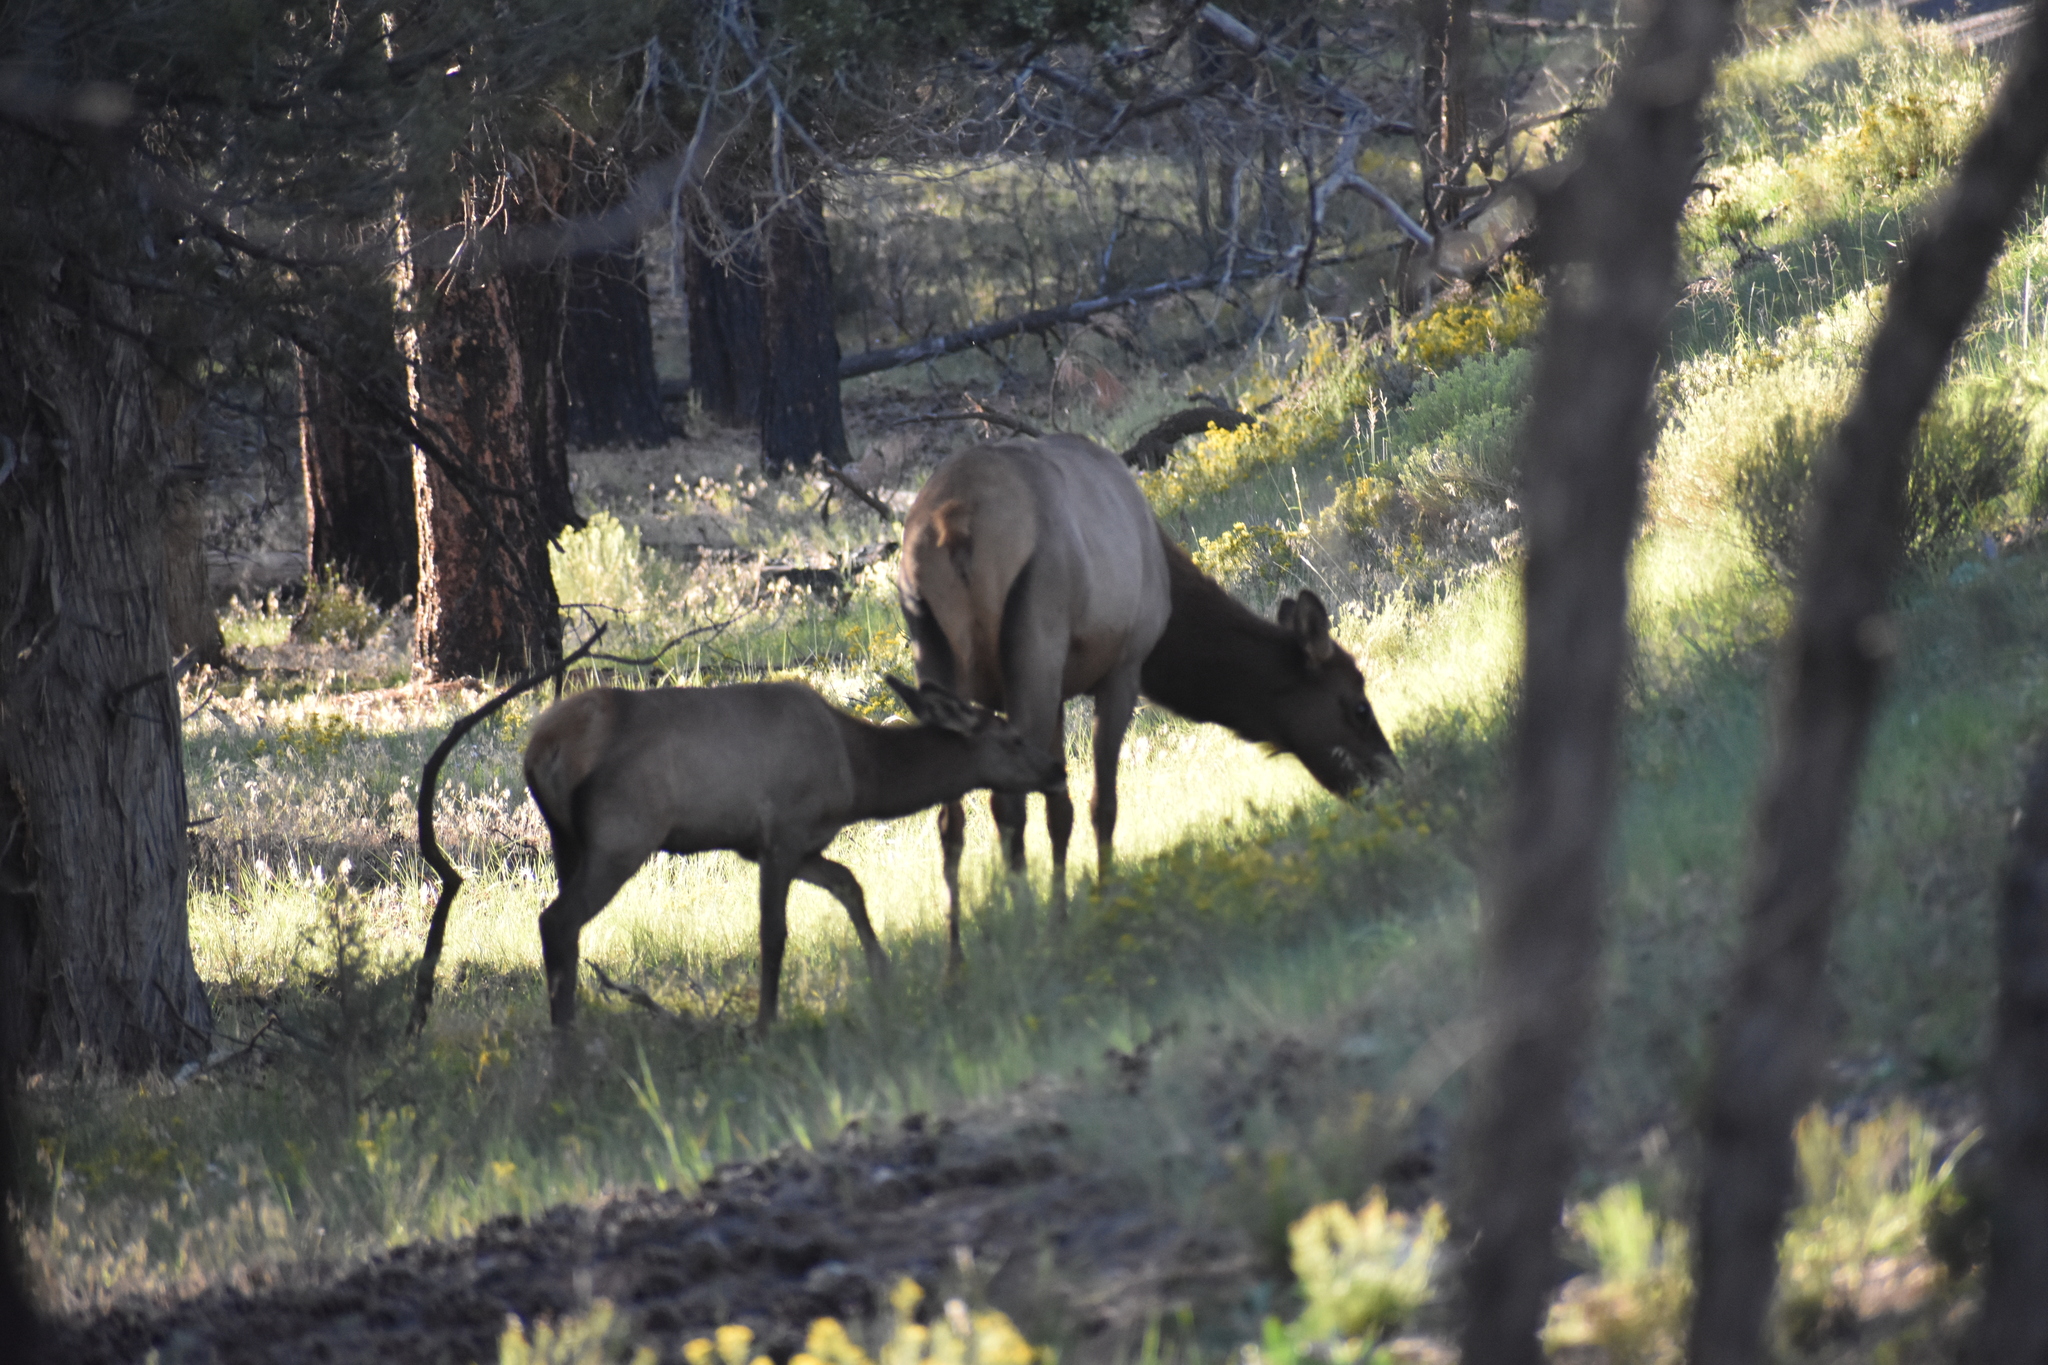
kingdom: Animalia
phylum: Chordata
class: Mammalia
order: Artiodactyla
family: Cervidae
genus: Cervus
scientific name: Cervus elaphus
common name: Red deer
